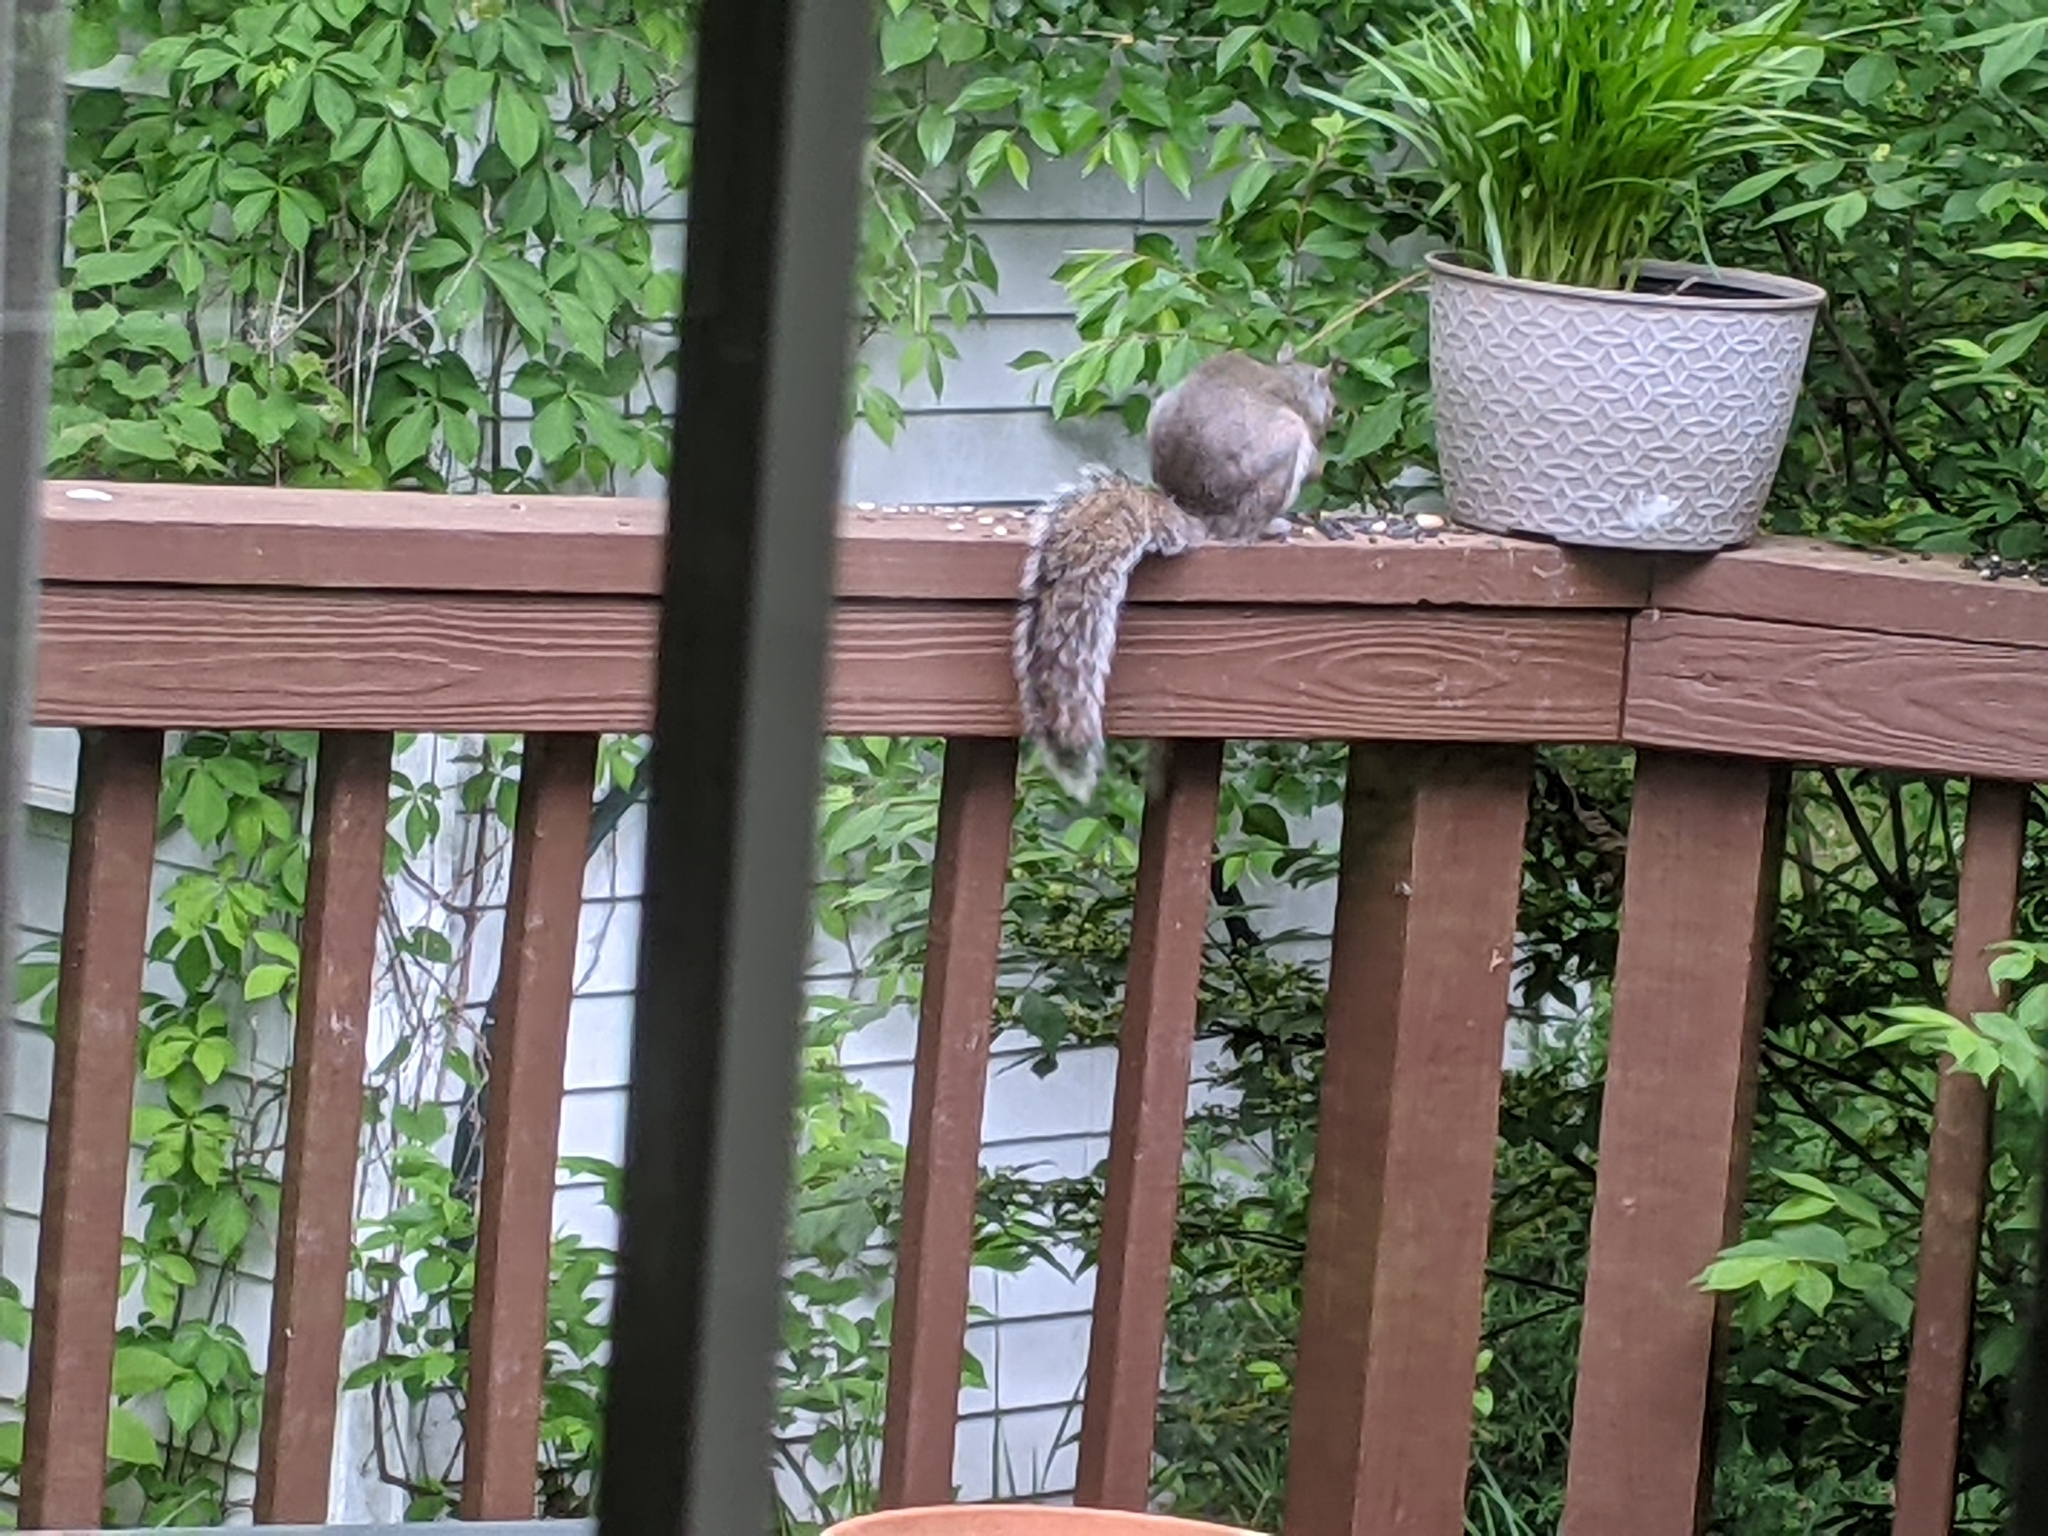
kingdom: Animalia
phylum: Chordata
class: Mammalia
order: Rodentia
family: Sciuridae
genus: Sciurus
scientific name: Sciurus carolinensis
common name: Eastern gray squirrel
